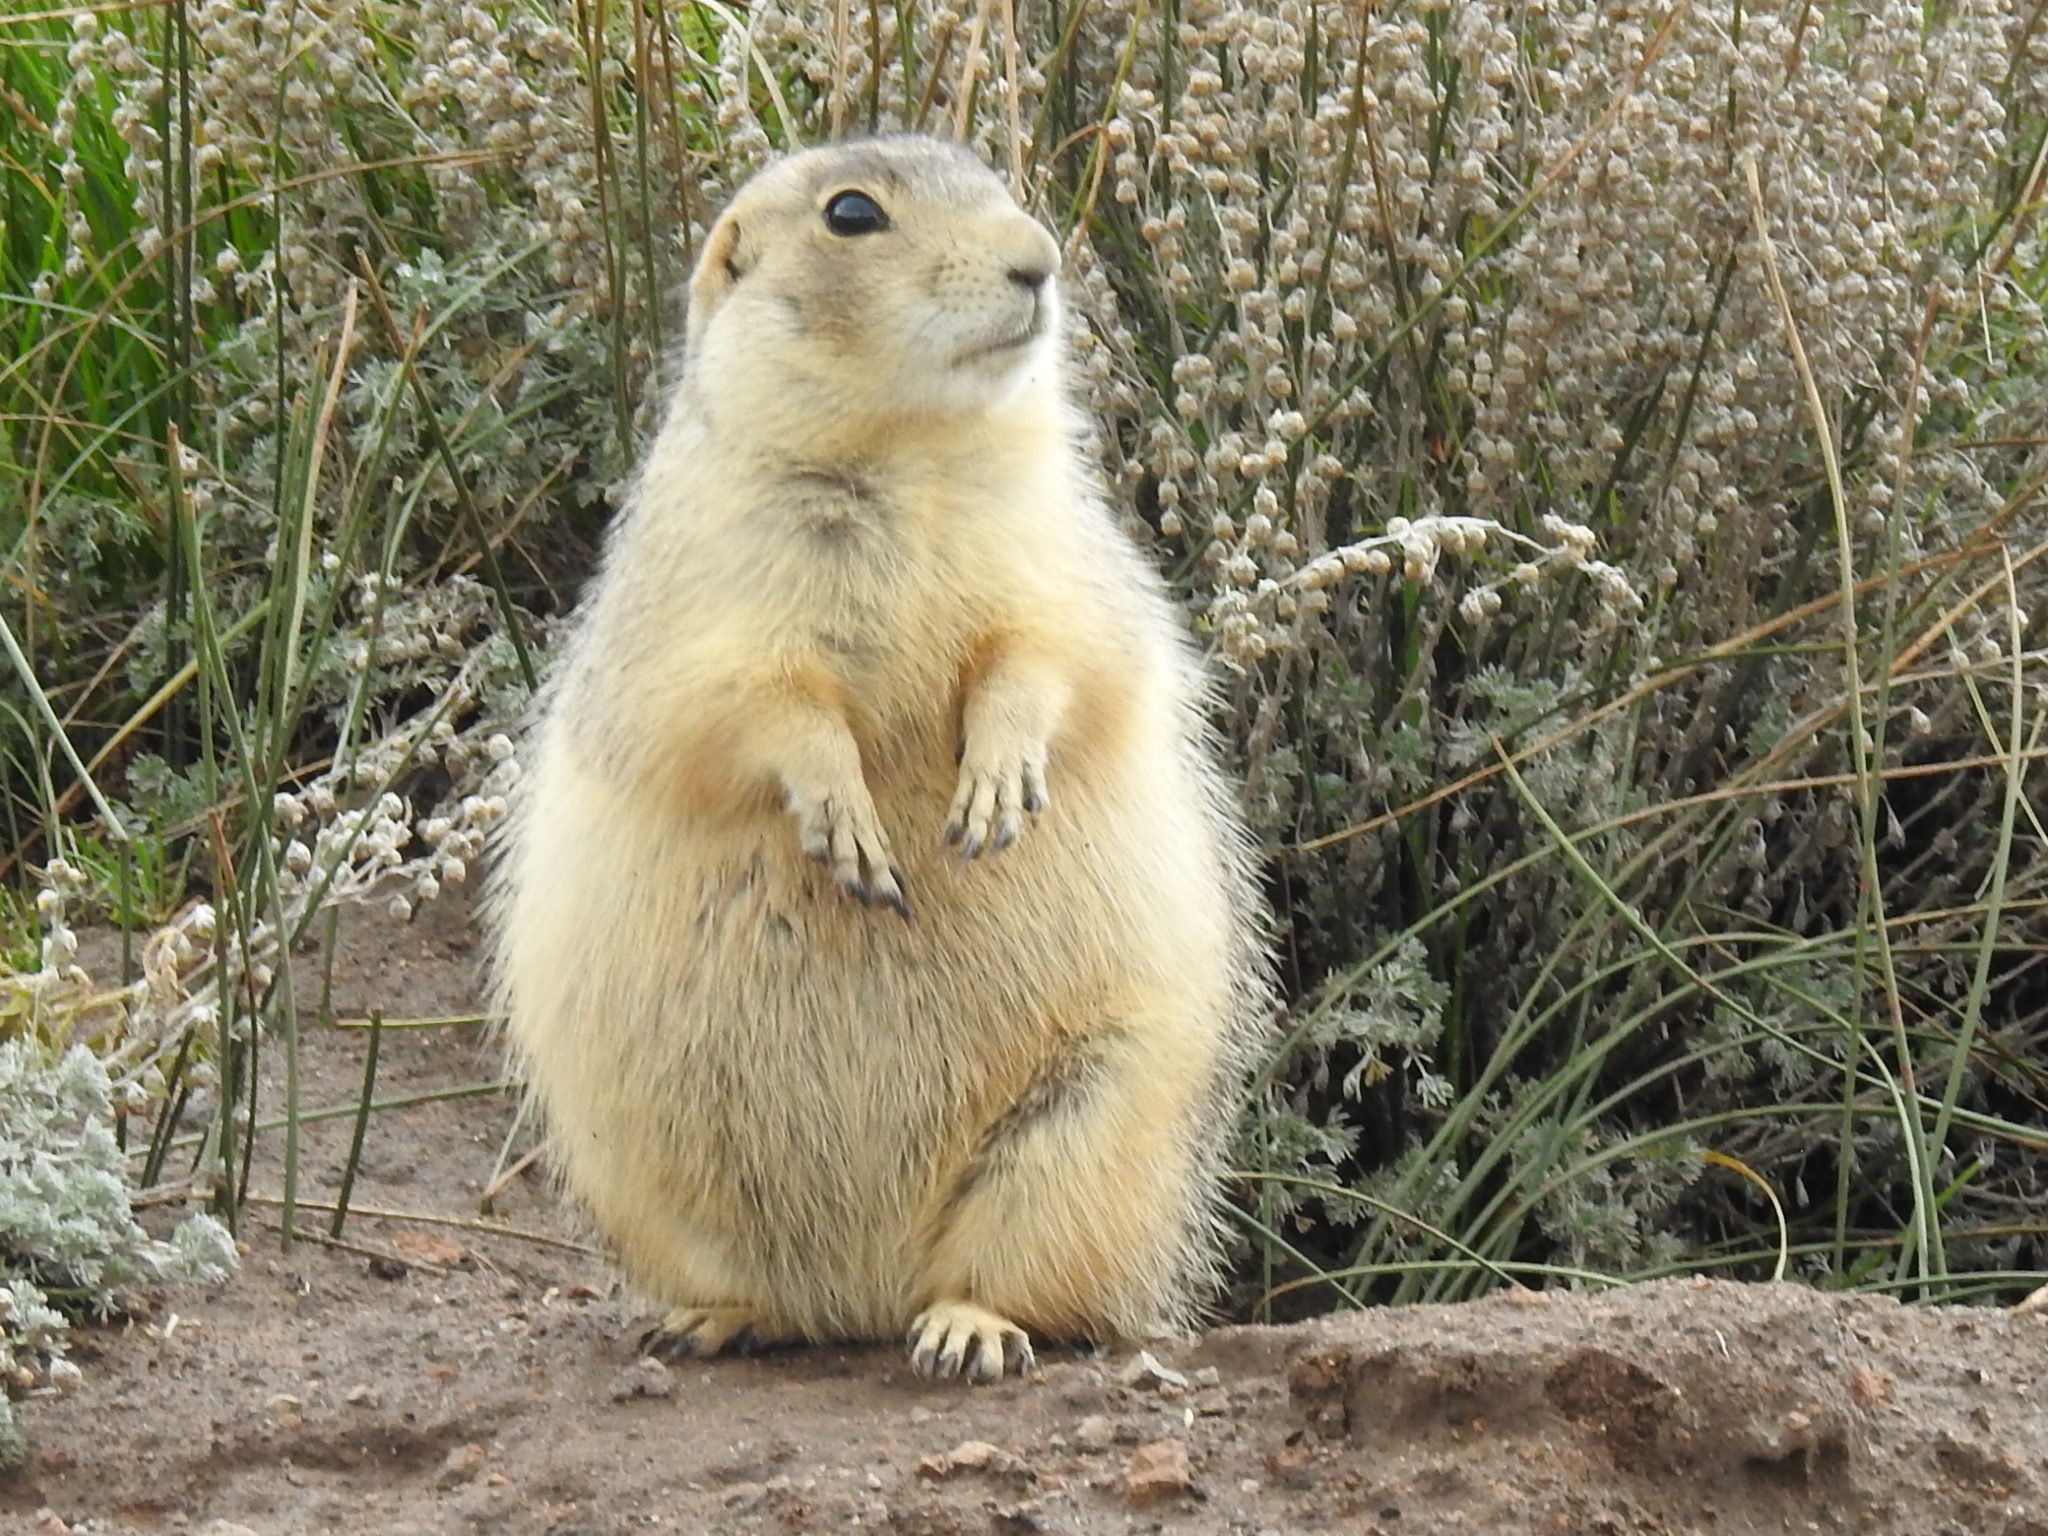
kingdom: Animalia
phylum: Chordata
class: Mammalia
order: Rodentia
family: Sciuridae
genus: Cynomys
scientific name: Cynomys gunnisoni
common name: Gunnison's prairie dog
